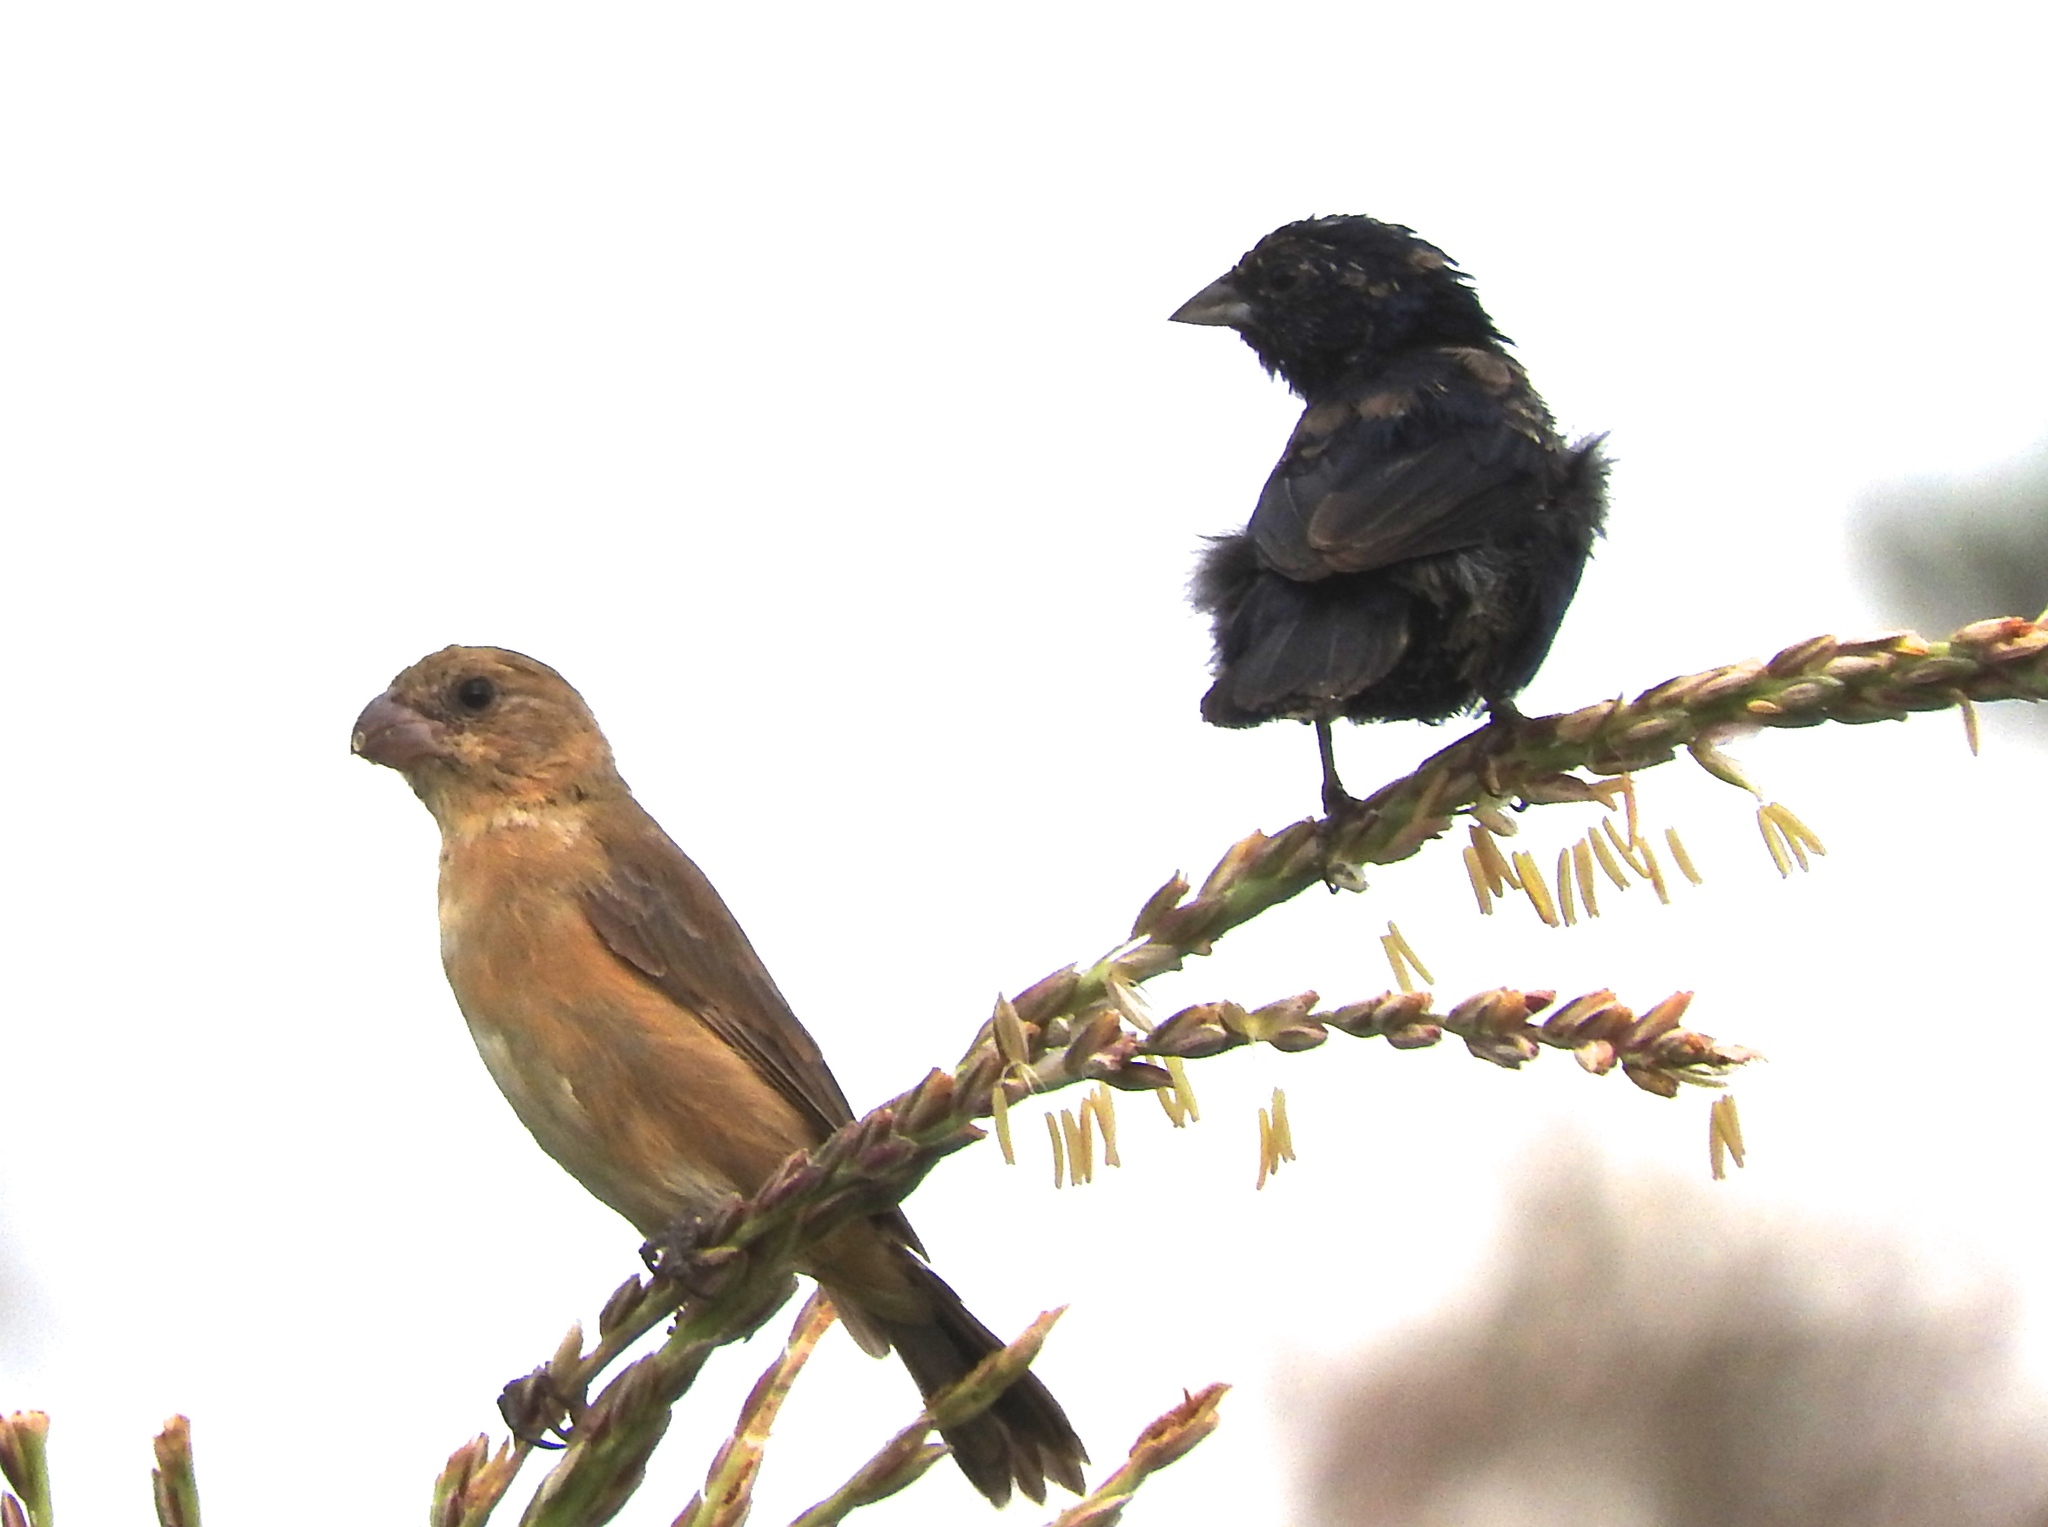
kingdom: Animalia
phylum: Chordata
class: Aves
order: Passeriformes
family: Thraupidae
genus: Sporophila
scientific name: Sporophila torqueola
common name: White-collared seedeater
